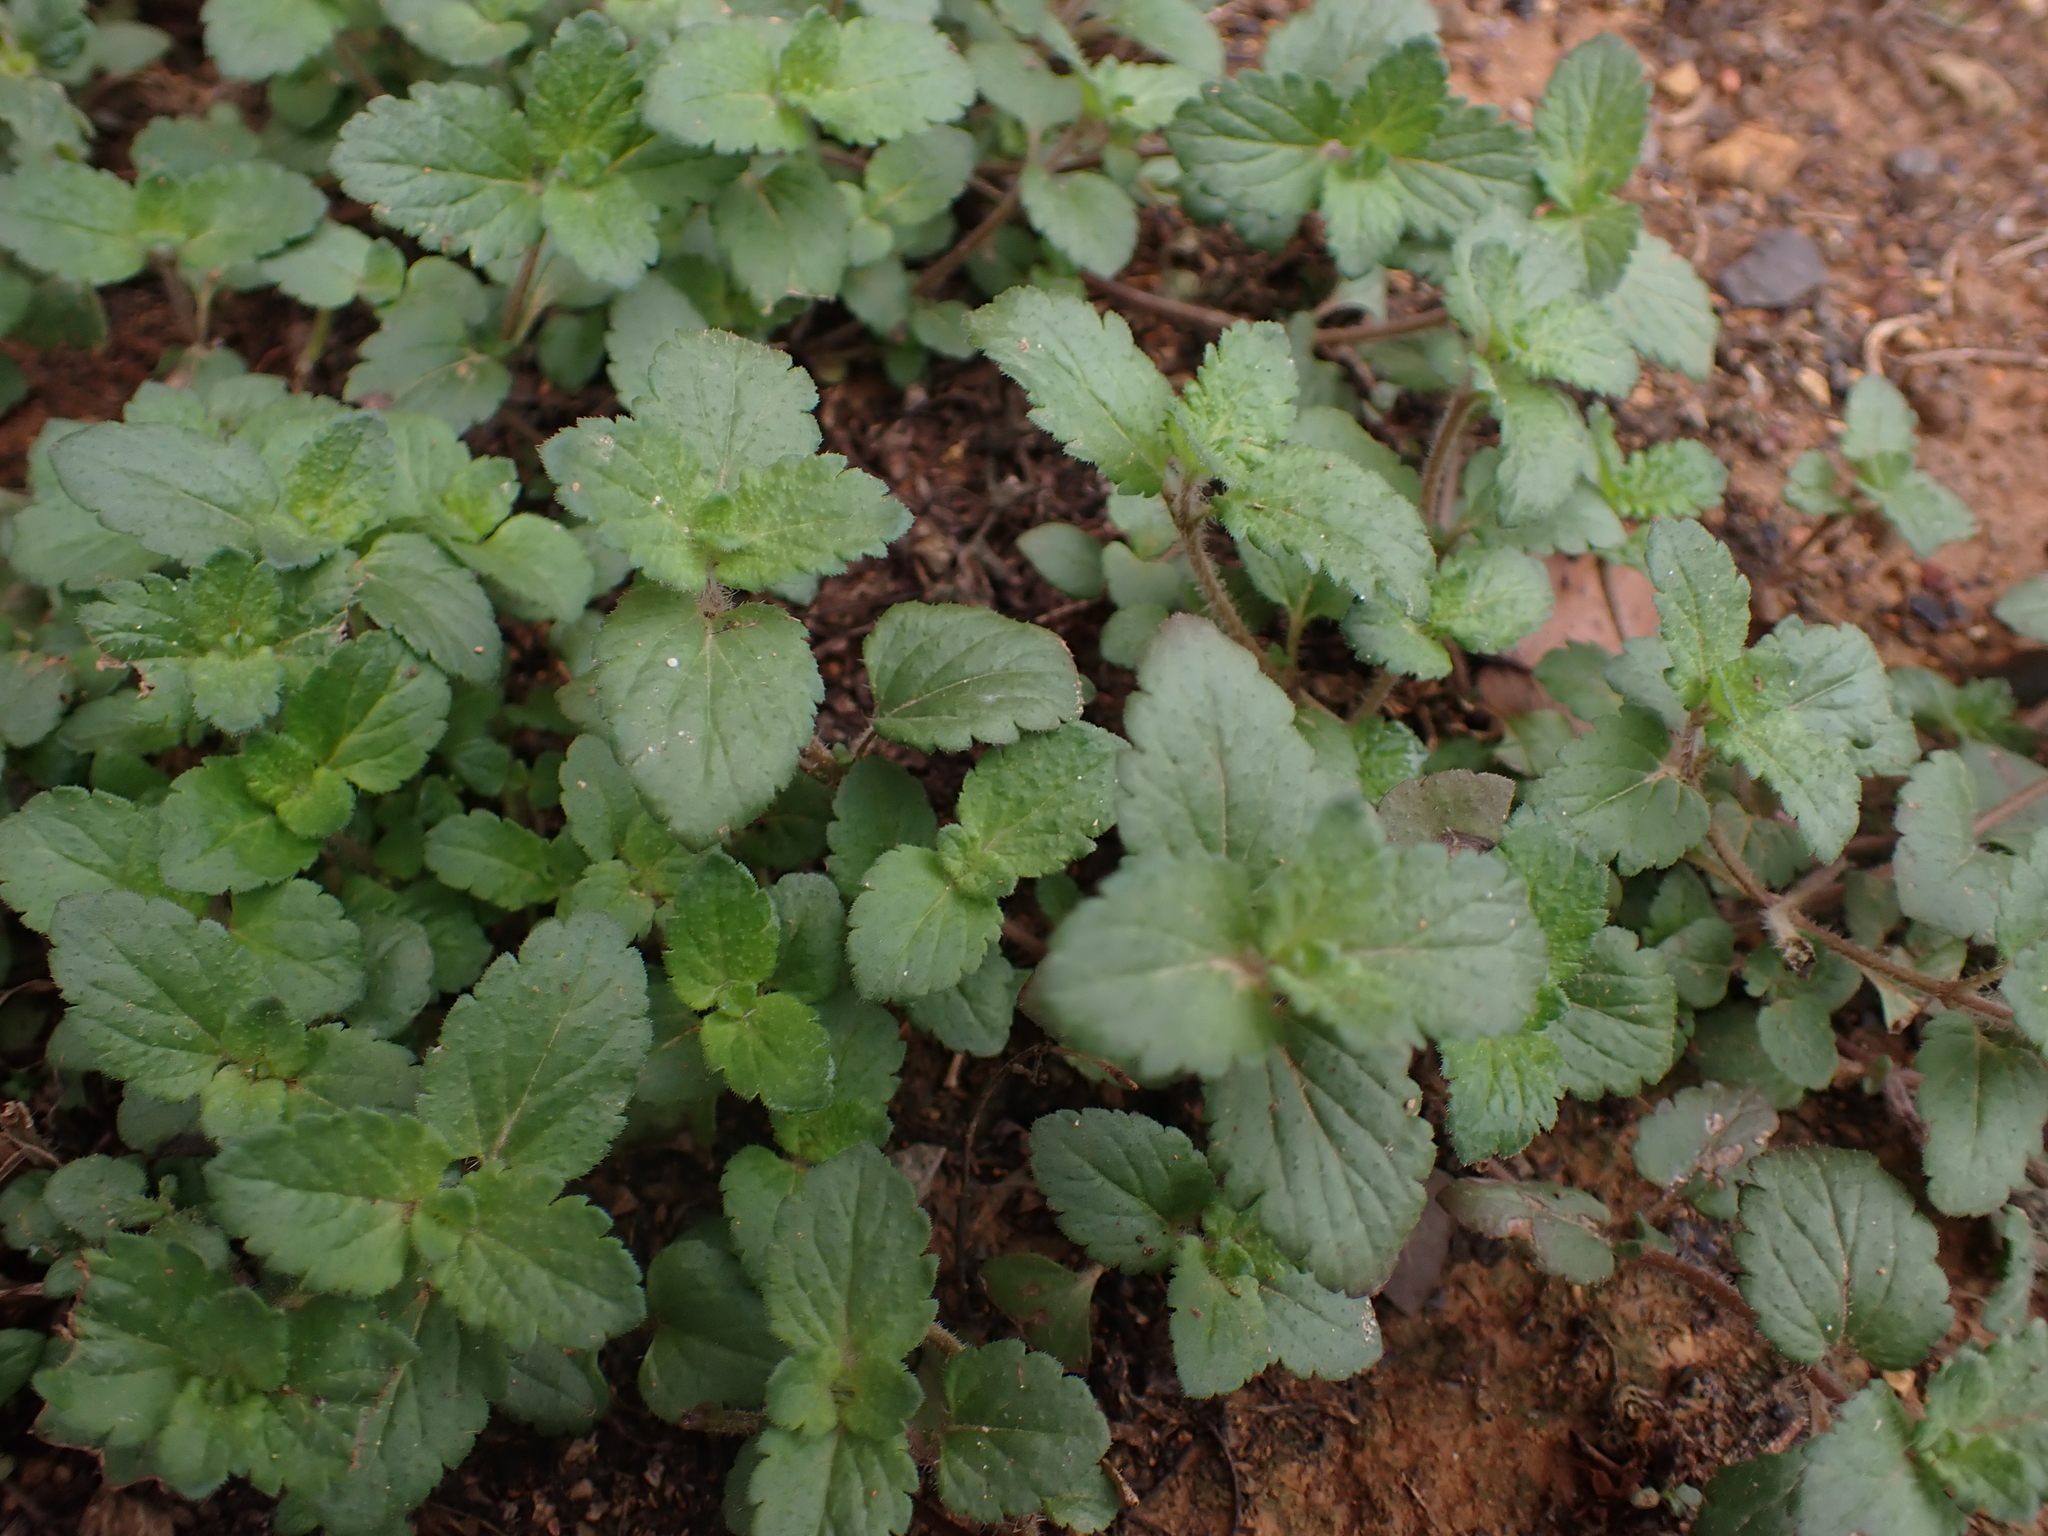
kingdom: Plantae
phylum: Tracheophyta
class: Magnoliopsida
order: Lamiales
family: Plantaginaceae
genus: Veronica
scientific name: Veronica persica
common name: Common field-speedwell
